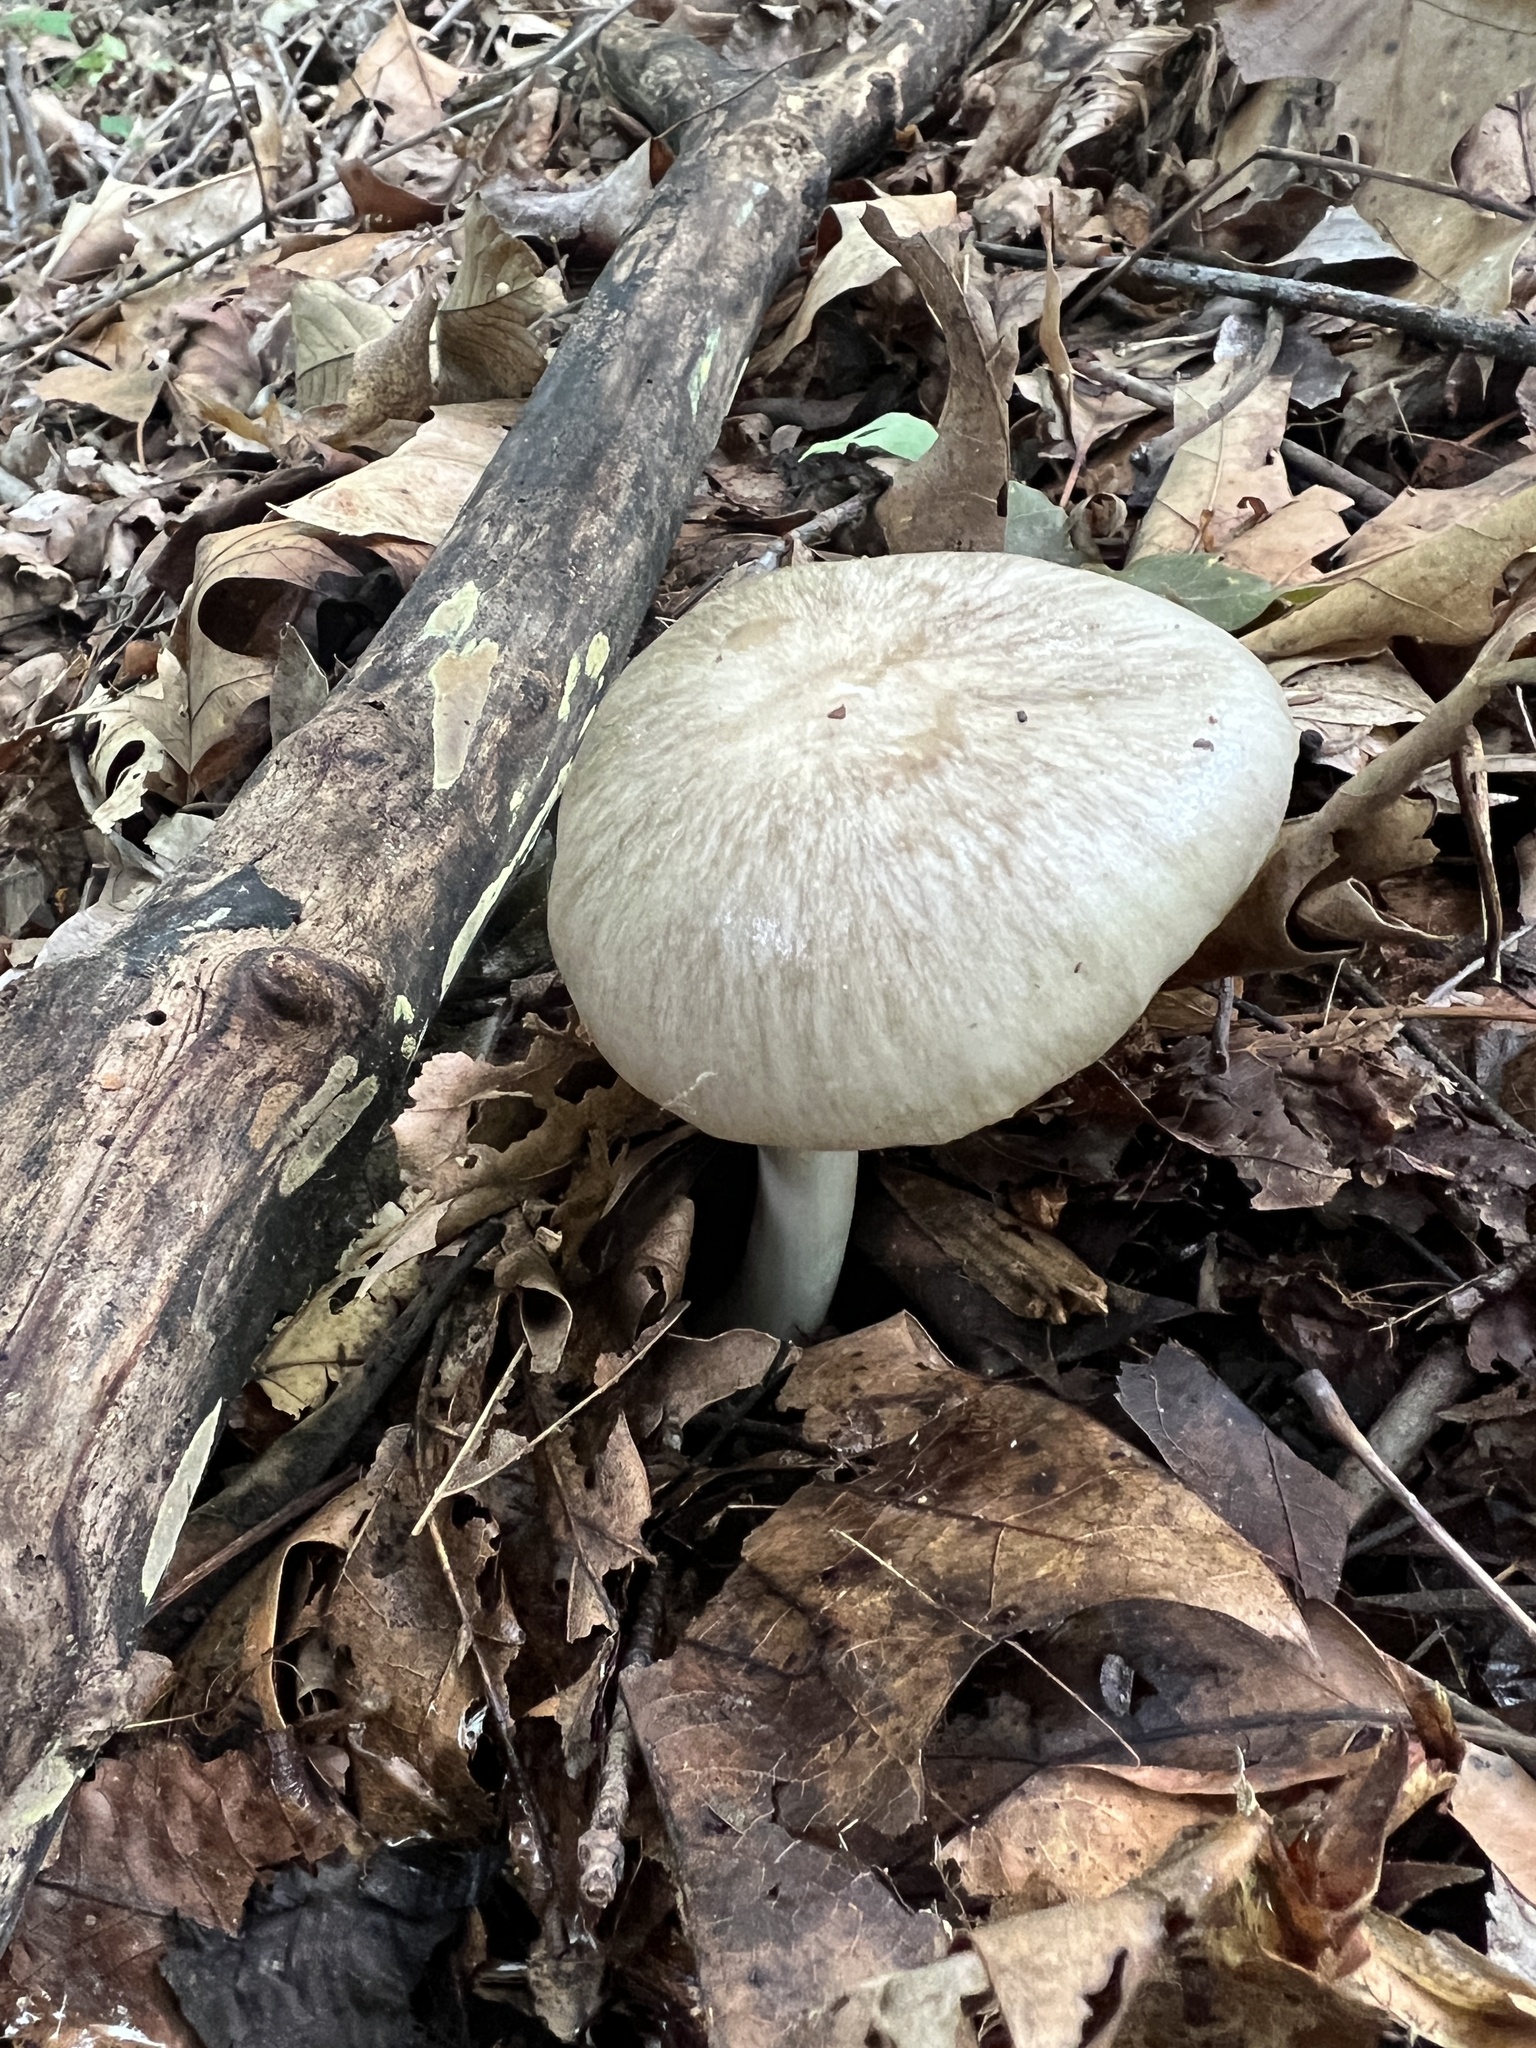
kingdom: Fungi
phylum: Basidiomycota
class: Agaricomycetes
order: Agaricales
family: Tricholomataceae
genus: Megacollybia
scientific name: Megacollybia rodmanii
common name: Eastern american platterful mushroom
